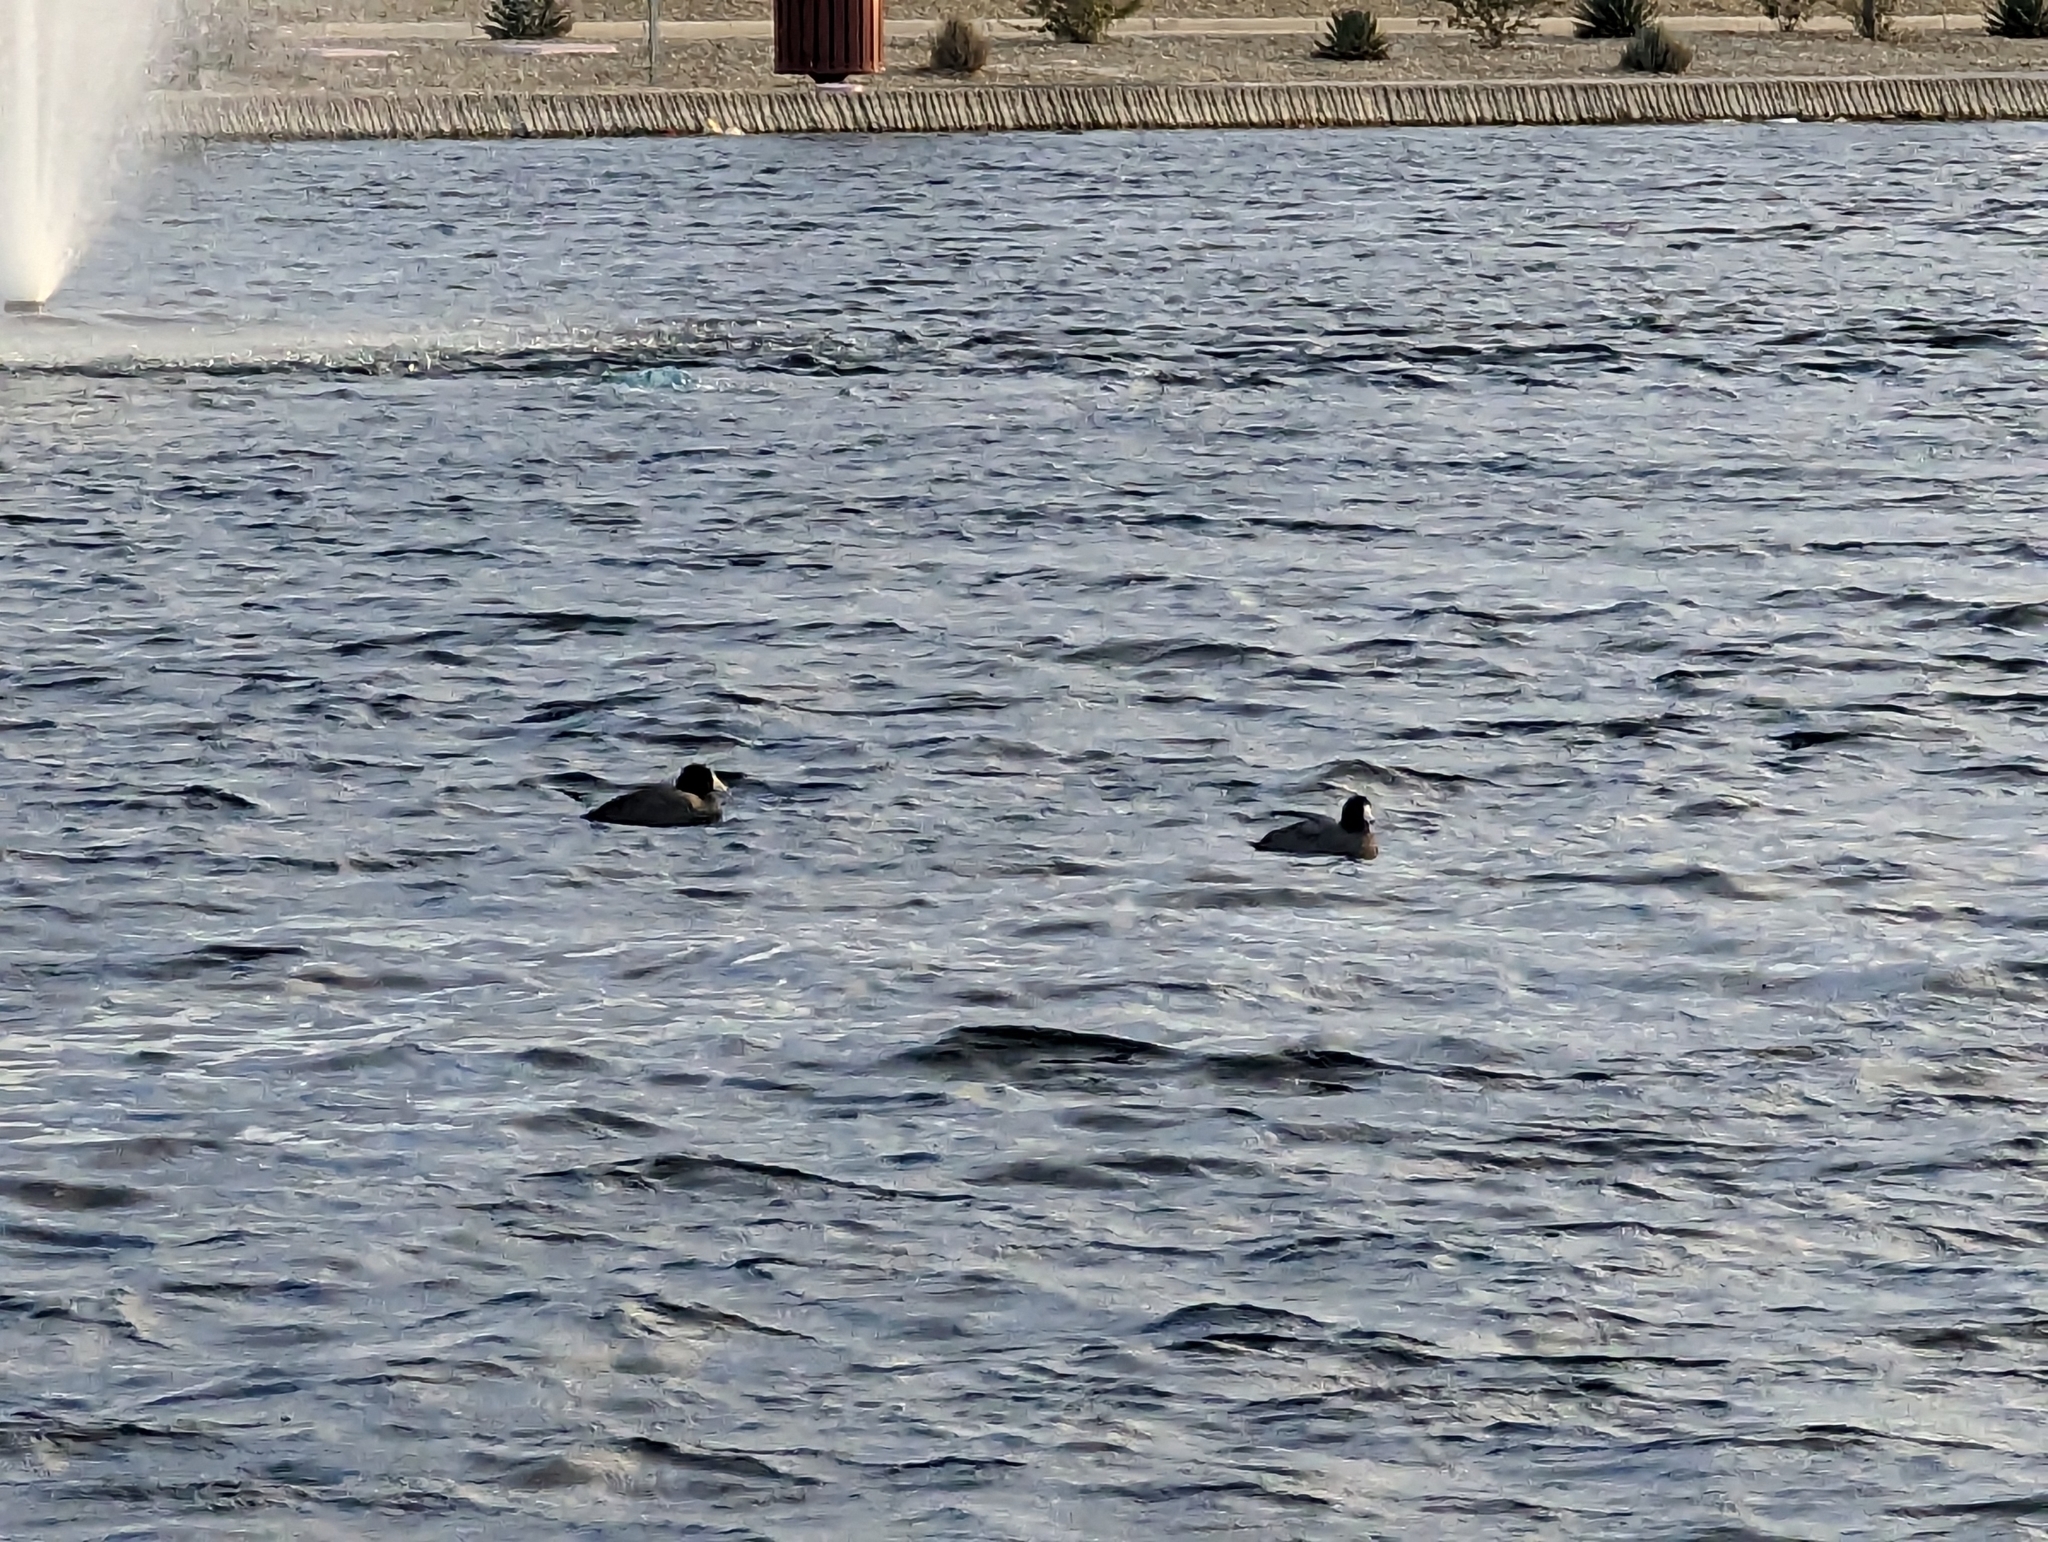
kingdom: Animalia
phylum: Chordata
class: Aves
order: Gruiformes
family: Rallidae
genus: Fulica
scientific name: Fulica americana
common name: American coot
